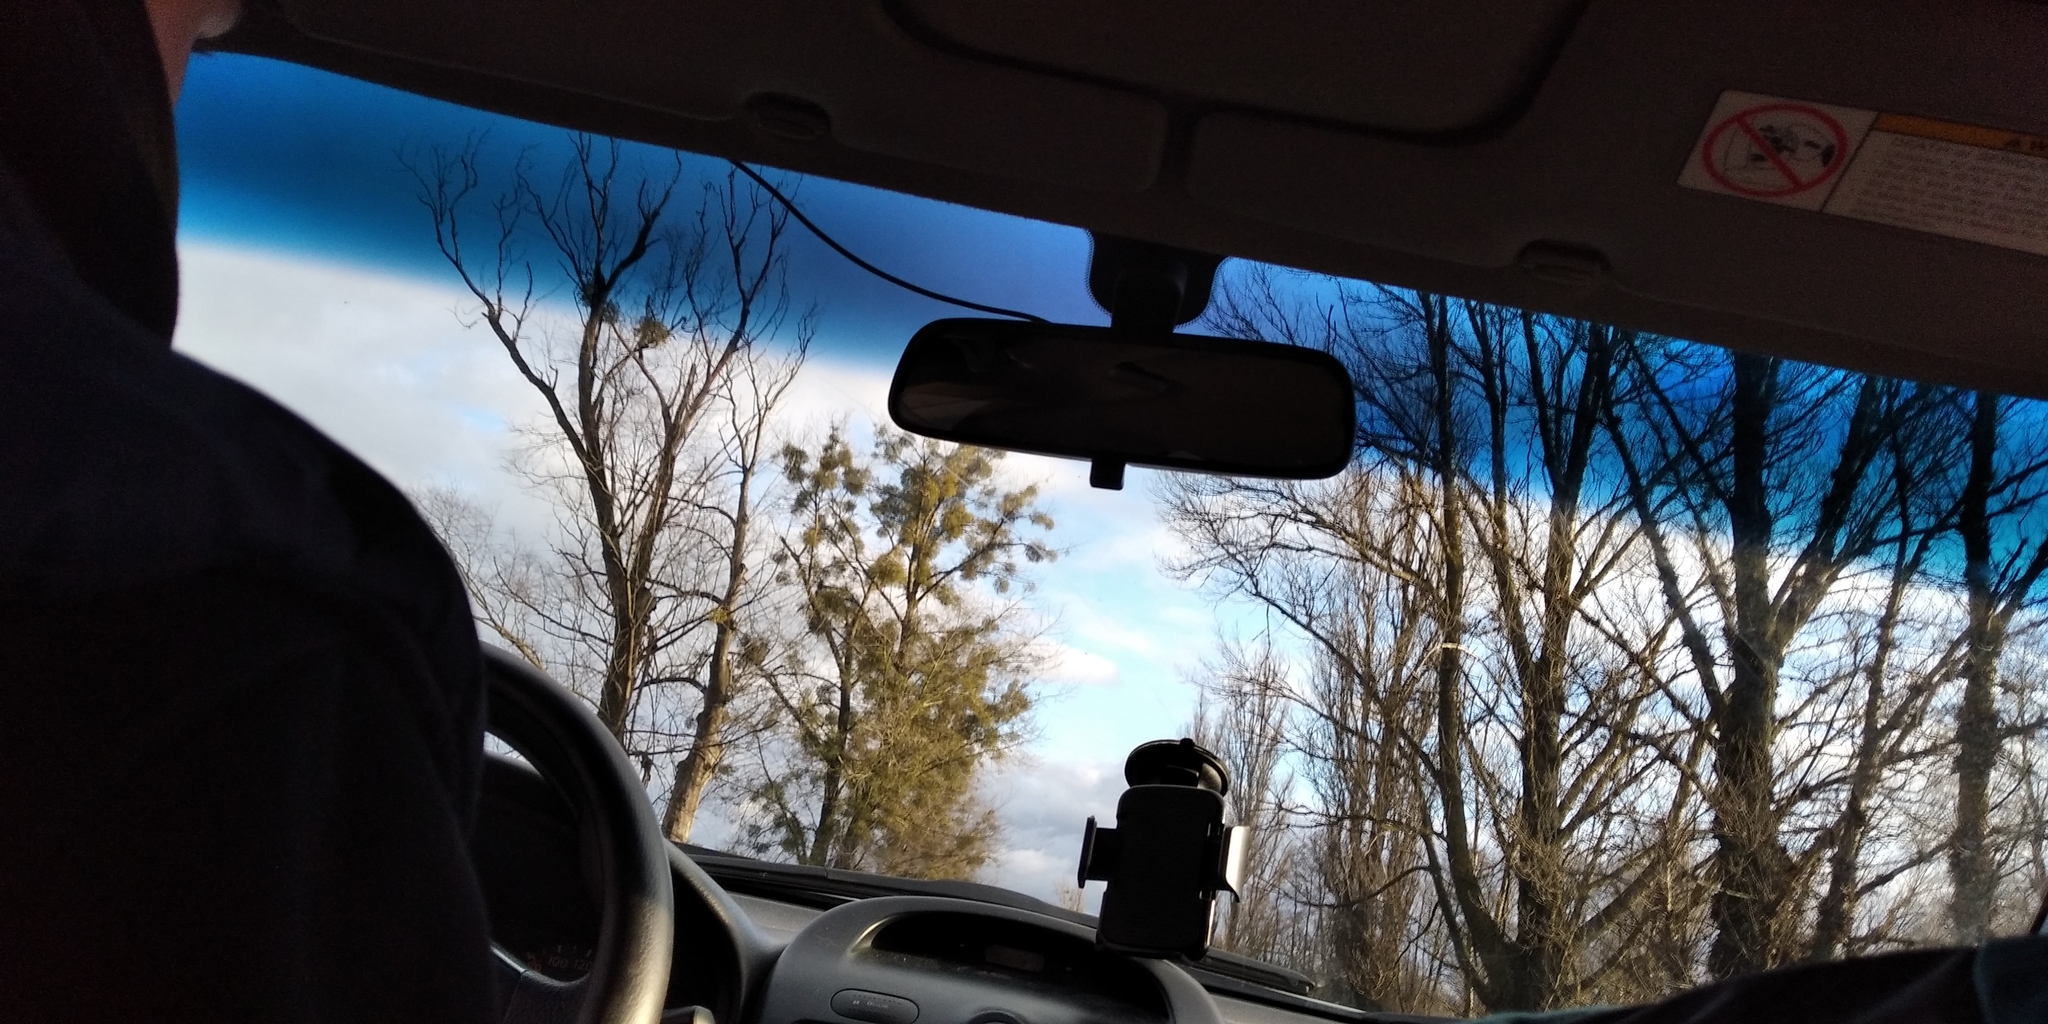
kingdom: Plantae
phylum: Tracheophyta
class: Magnoliopsida
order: Santalales
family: Viscaceae
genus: Viscum
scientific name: Viscum album
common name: Mistletoe
